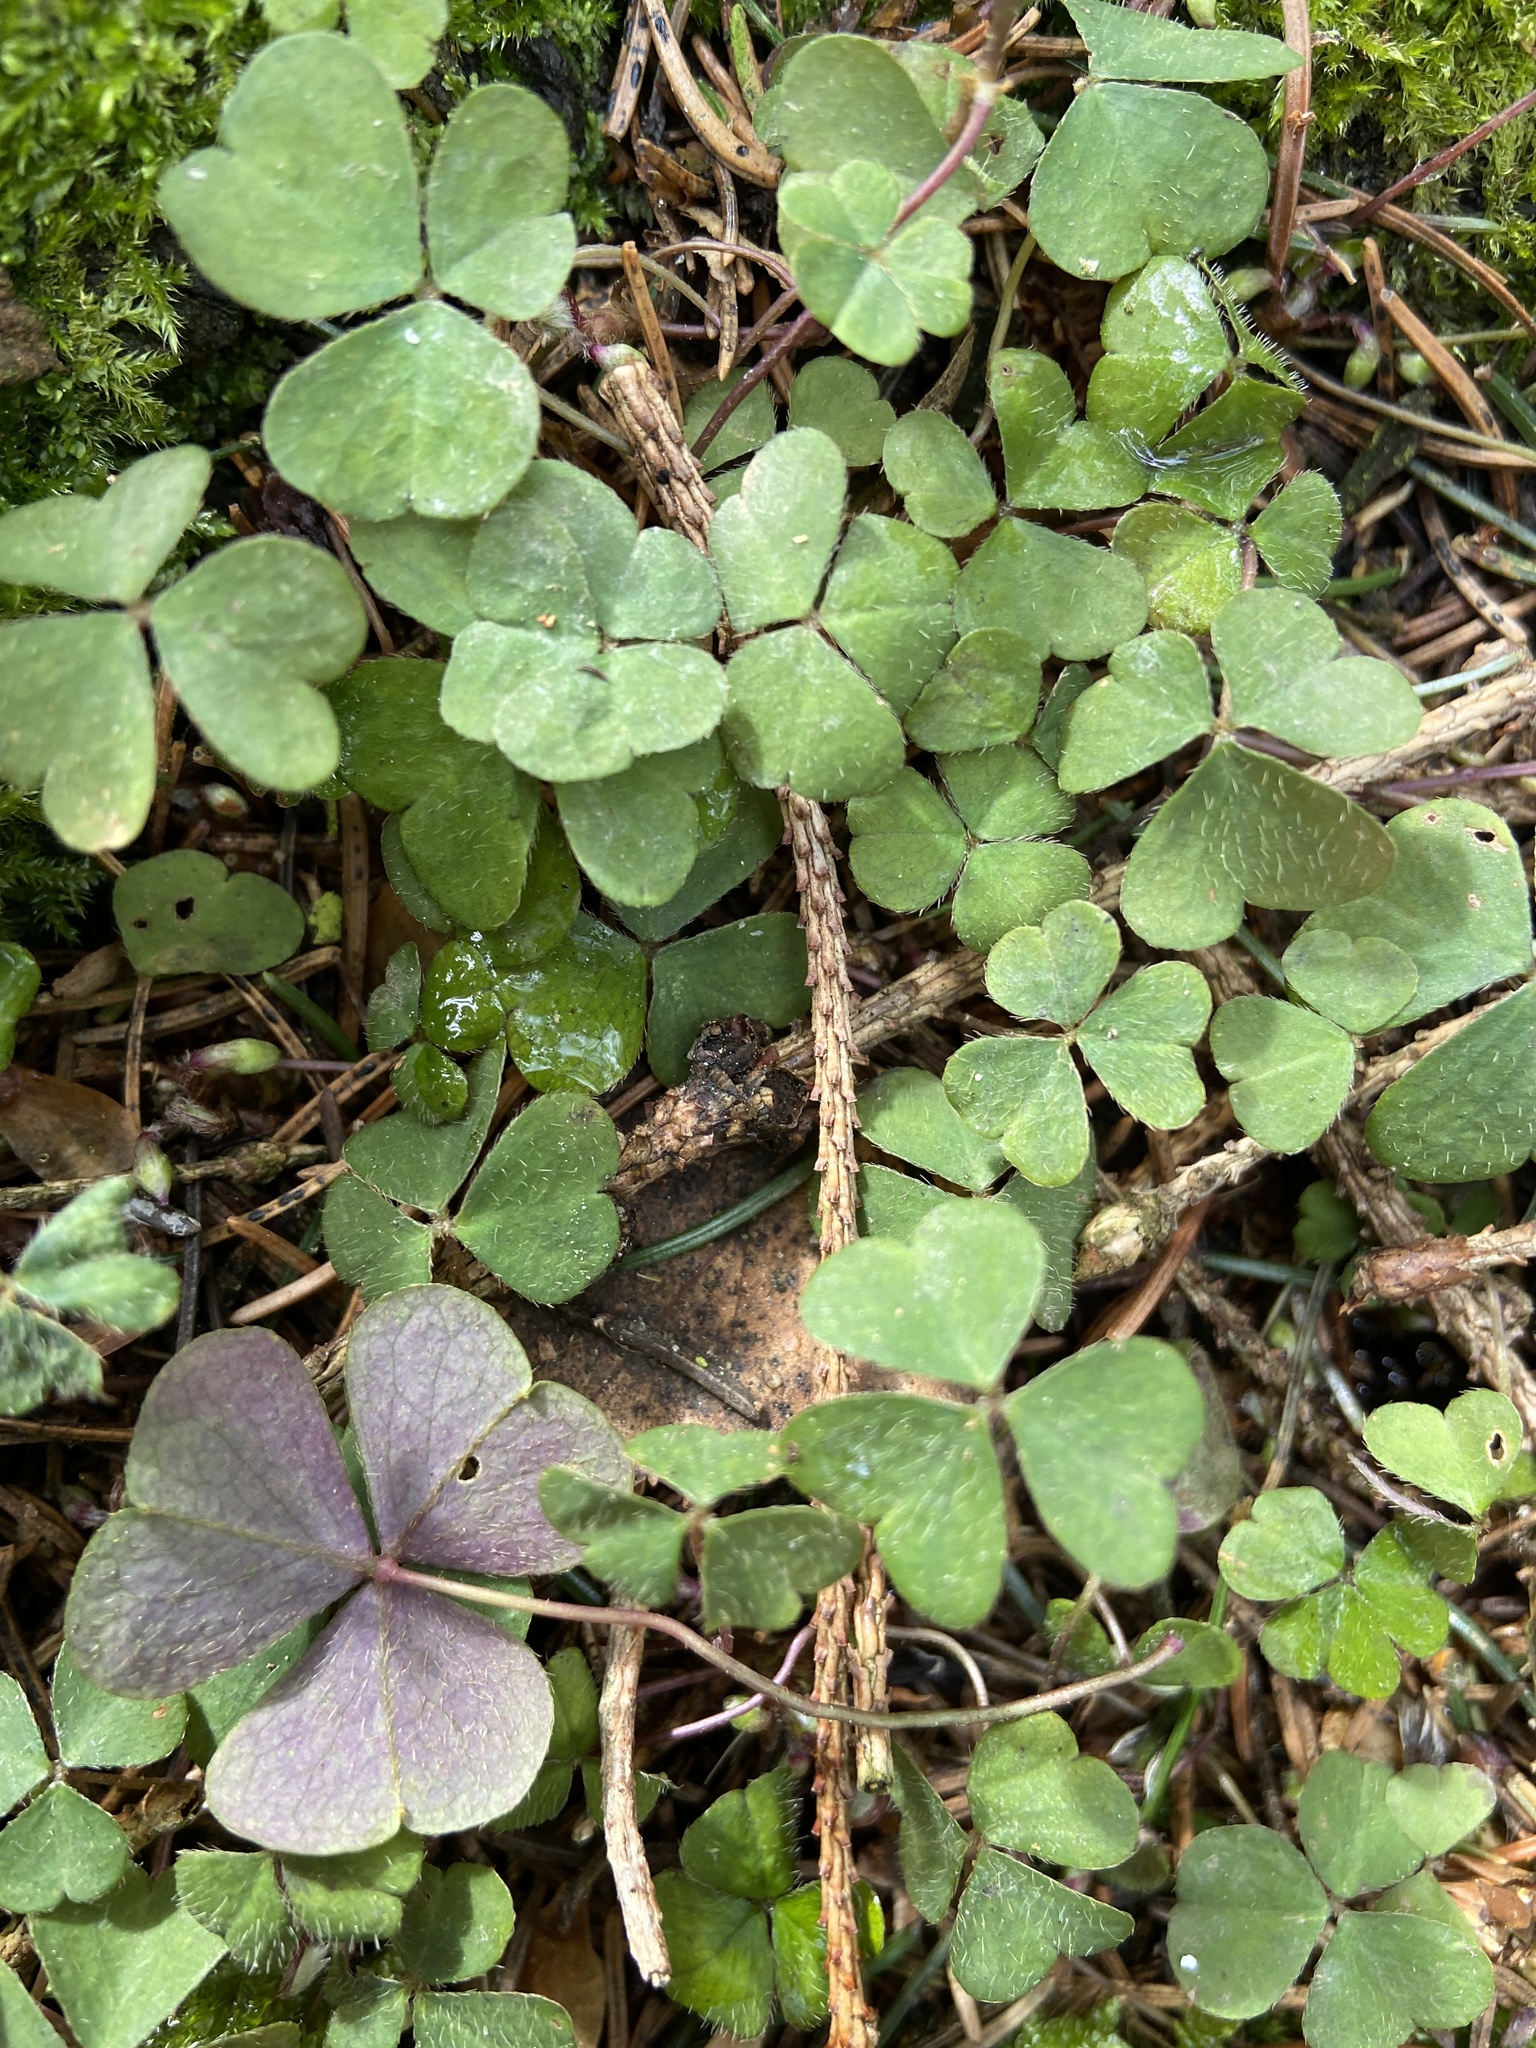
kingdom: Plantae
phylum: Tracheophyta
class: Magnoliopsida
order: Oxalidales
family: Oxalidaceae
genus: Oxalis
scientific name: Oxalis acetosella
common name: Wood-sorrel
